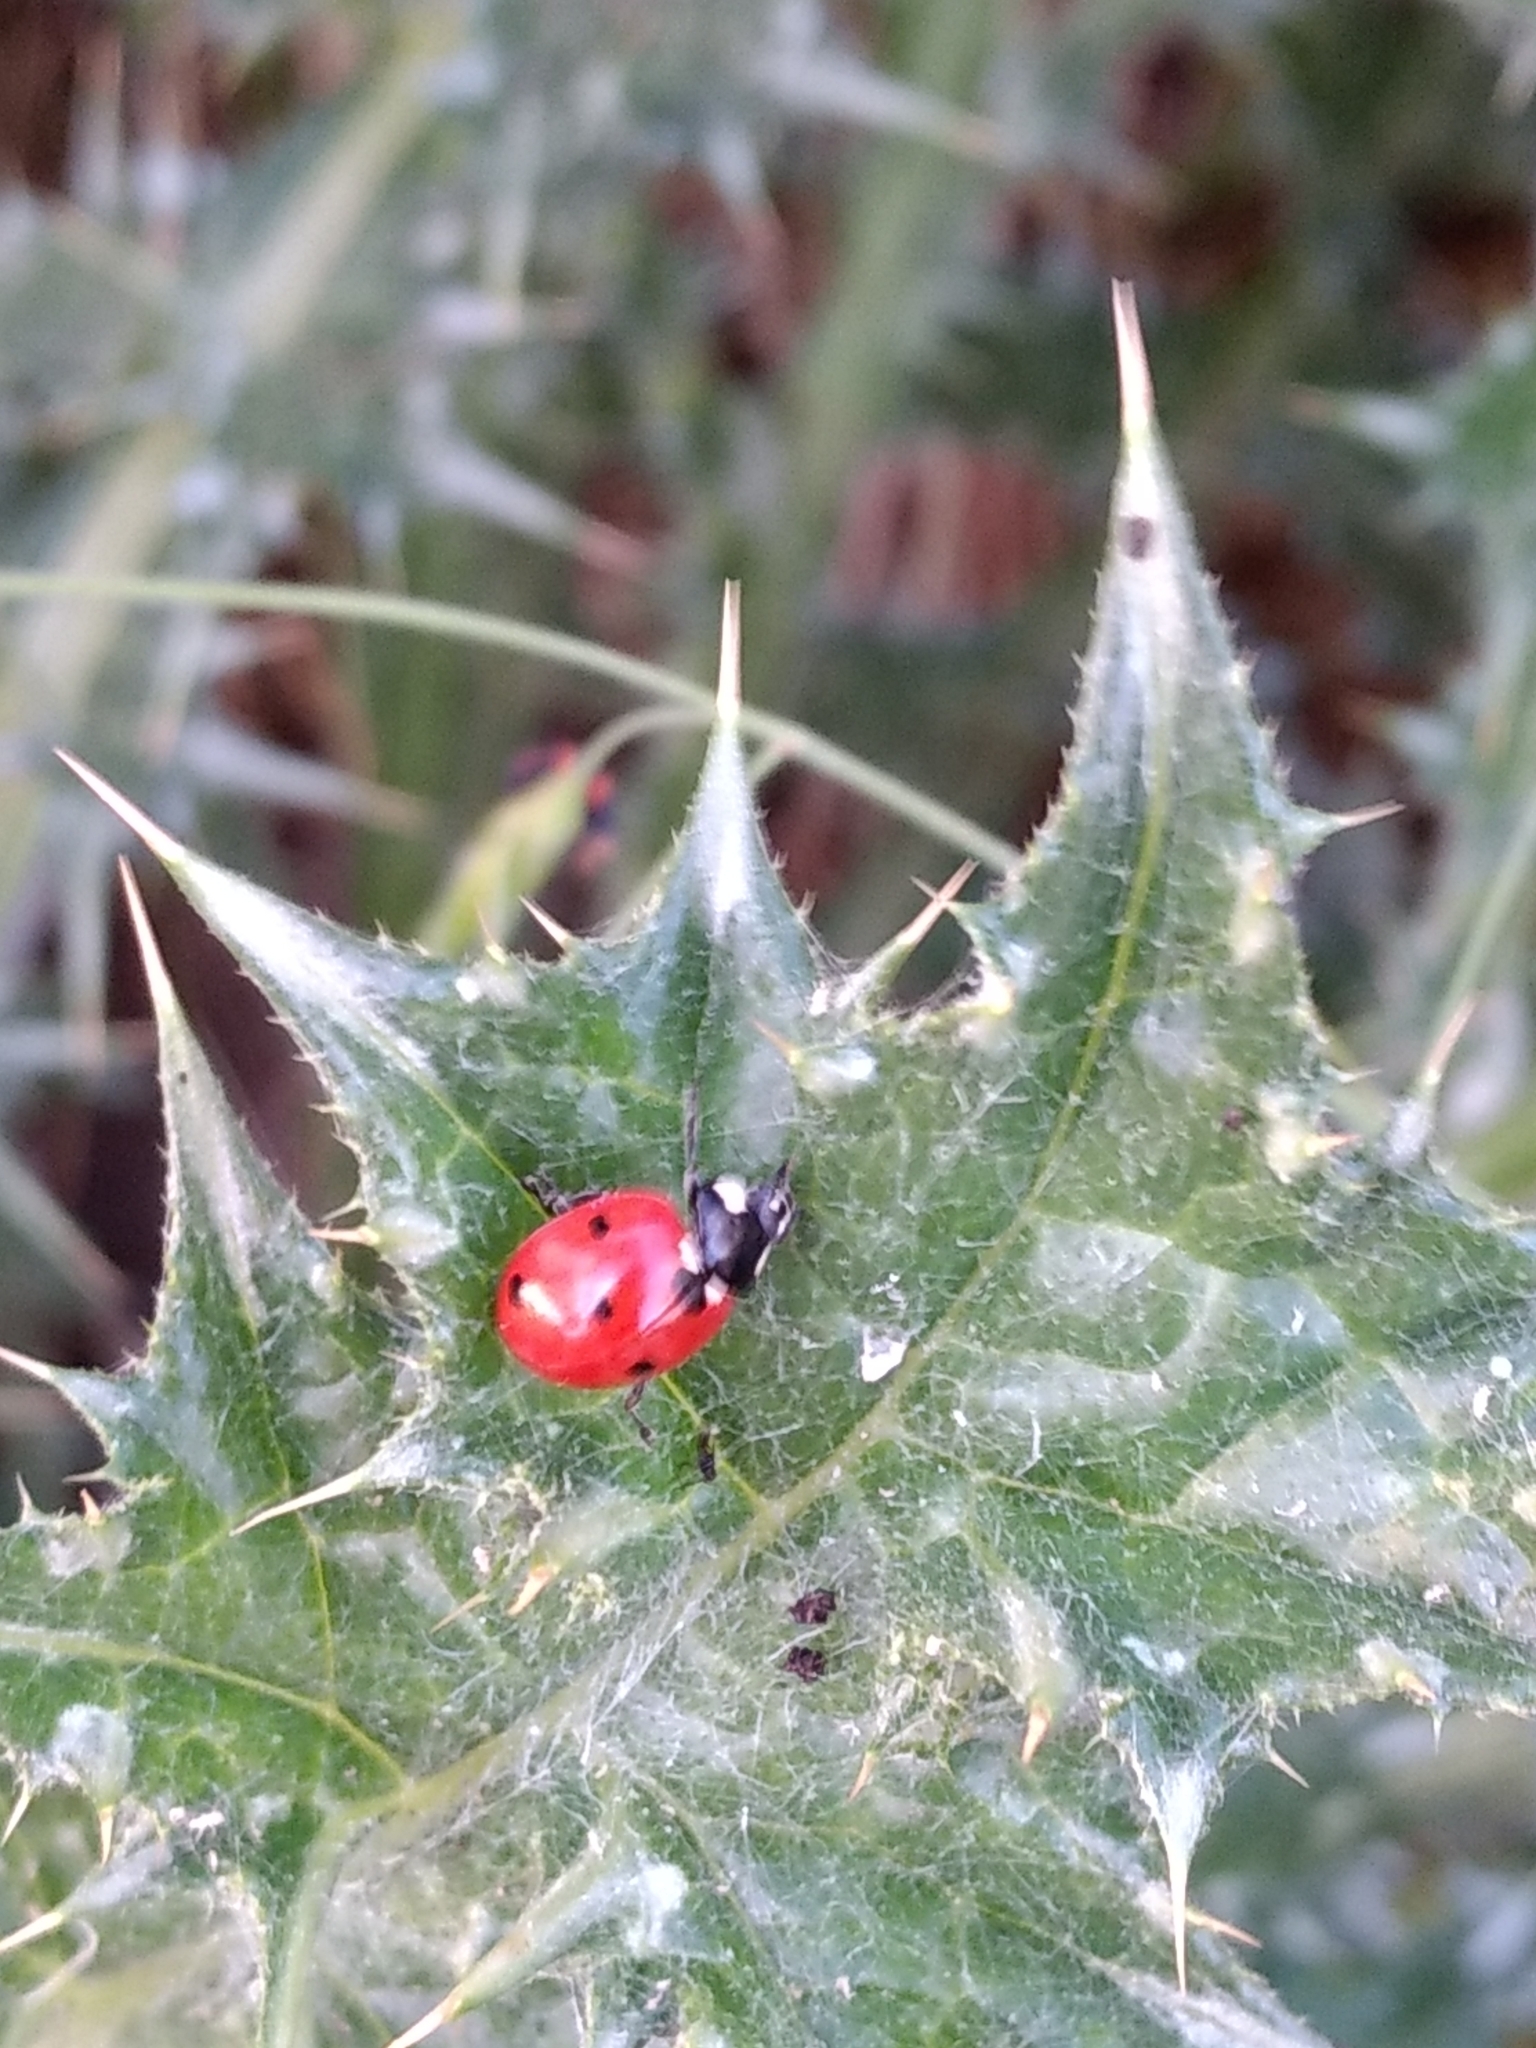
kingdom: Animalia
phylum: Arthropoda
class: Insecta
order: Coleoptera
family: Coccinellidae
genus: Coccinella
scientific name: Coccinella septempunctata
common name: Sevenspotted lady beetle
